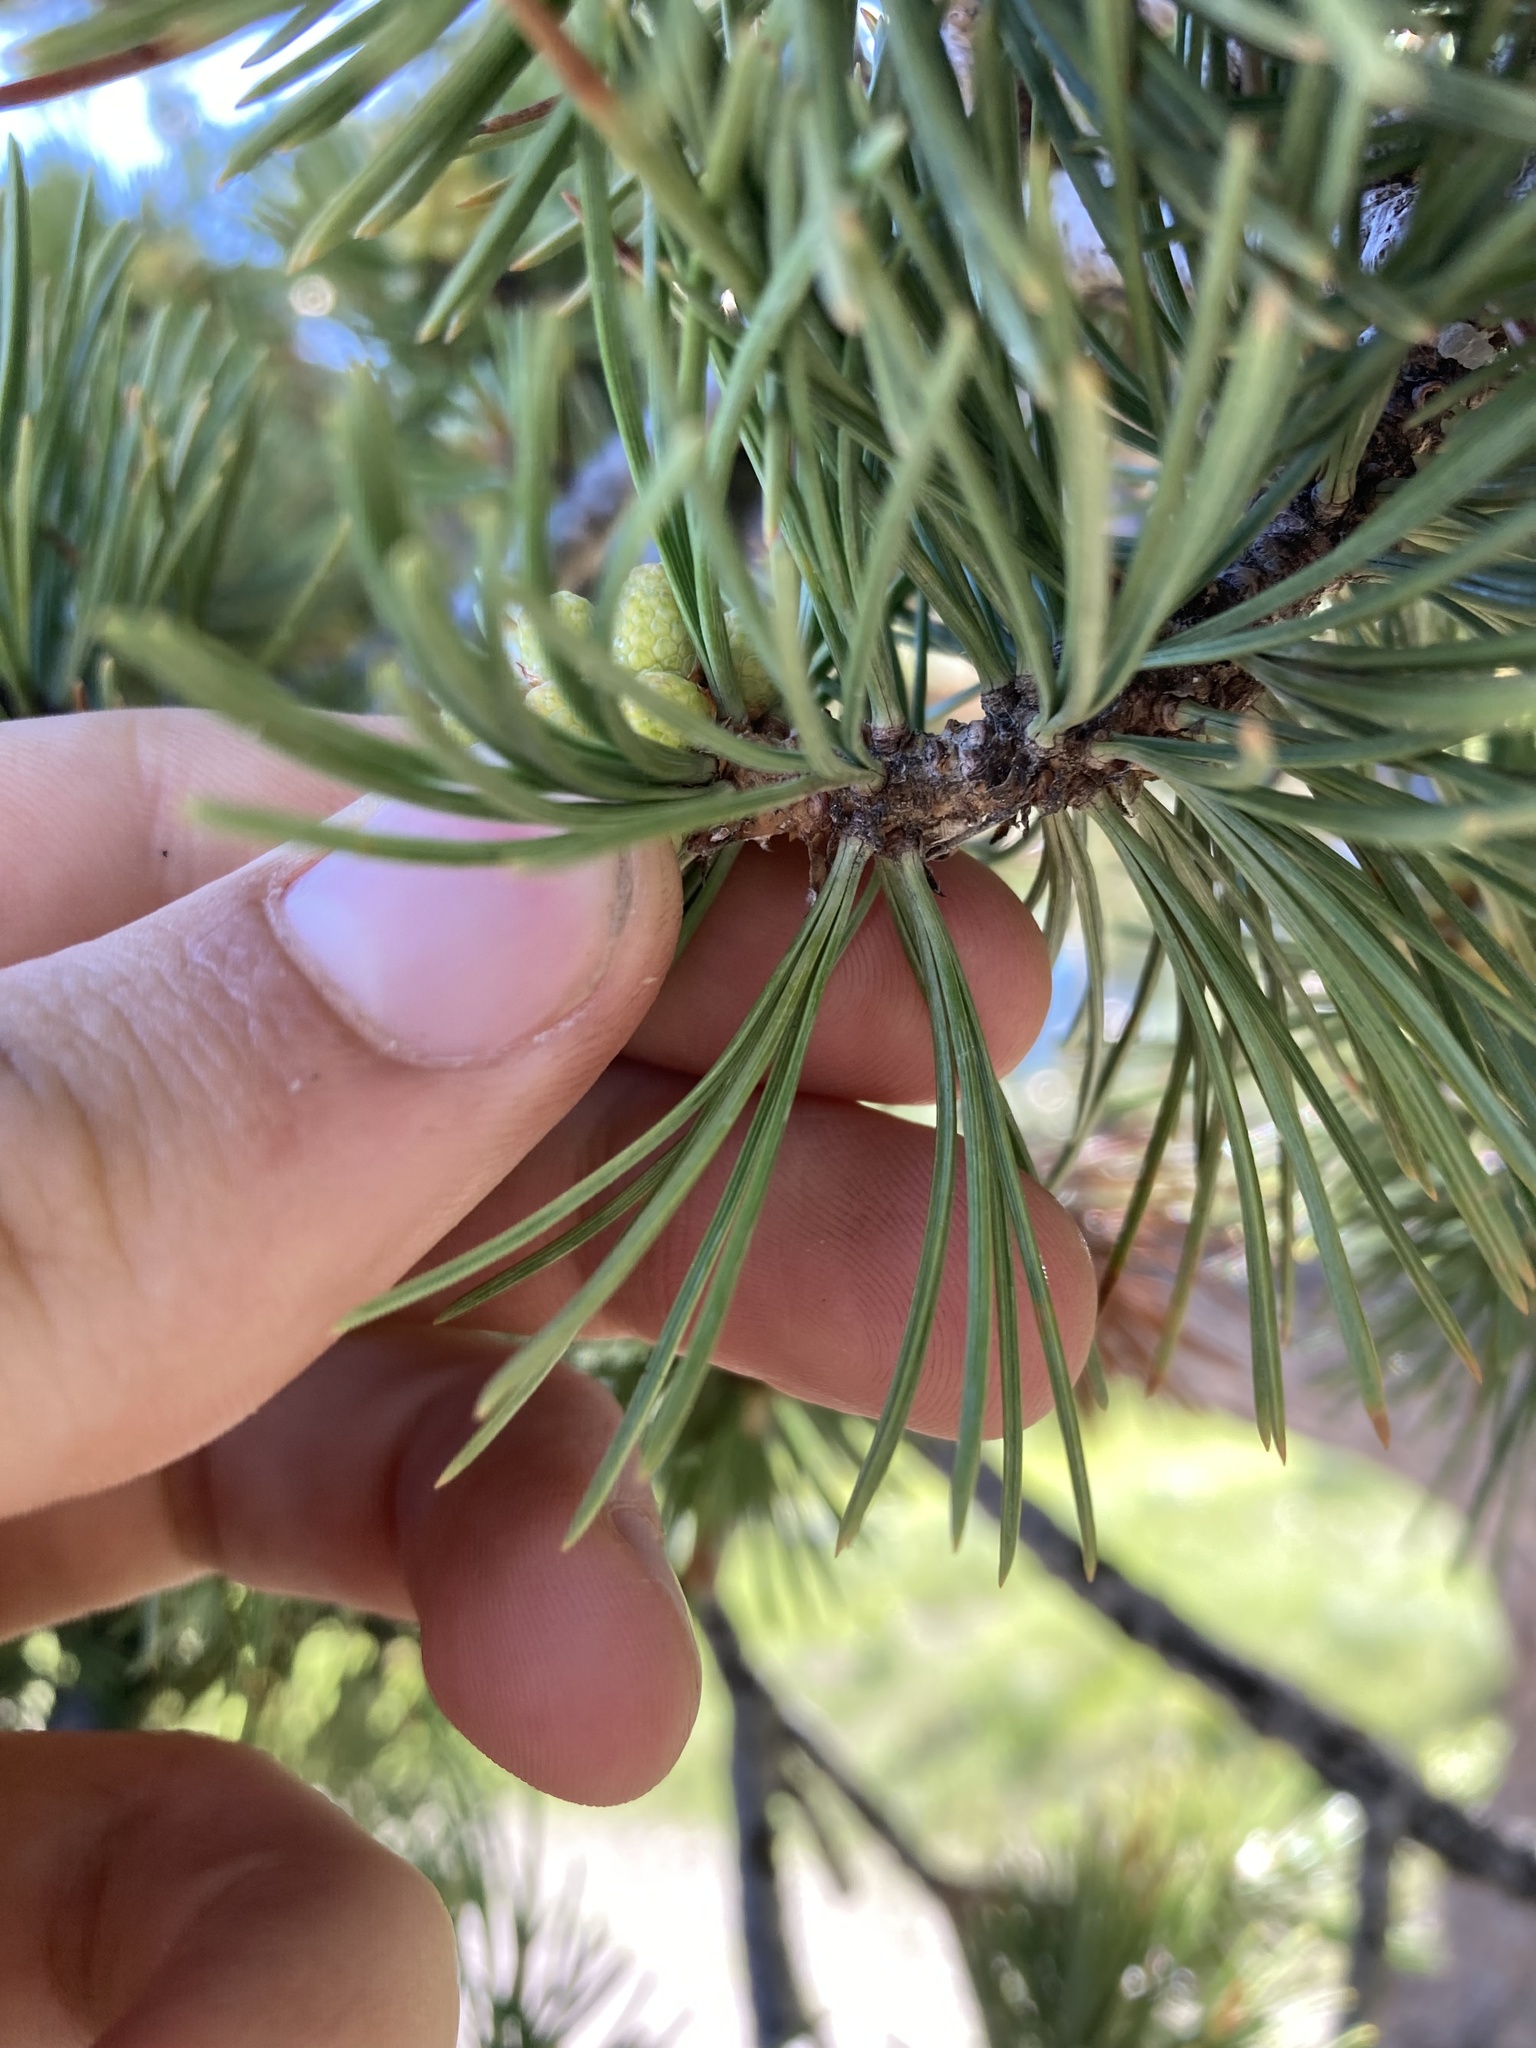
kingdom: Plantae
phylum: Tracheophyta
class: Pinopsida
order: Pinales
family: Pinaceae
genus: Pinus
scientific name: Pinus flexilis
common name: Limber pine
